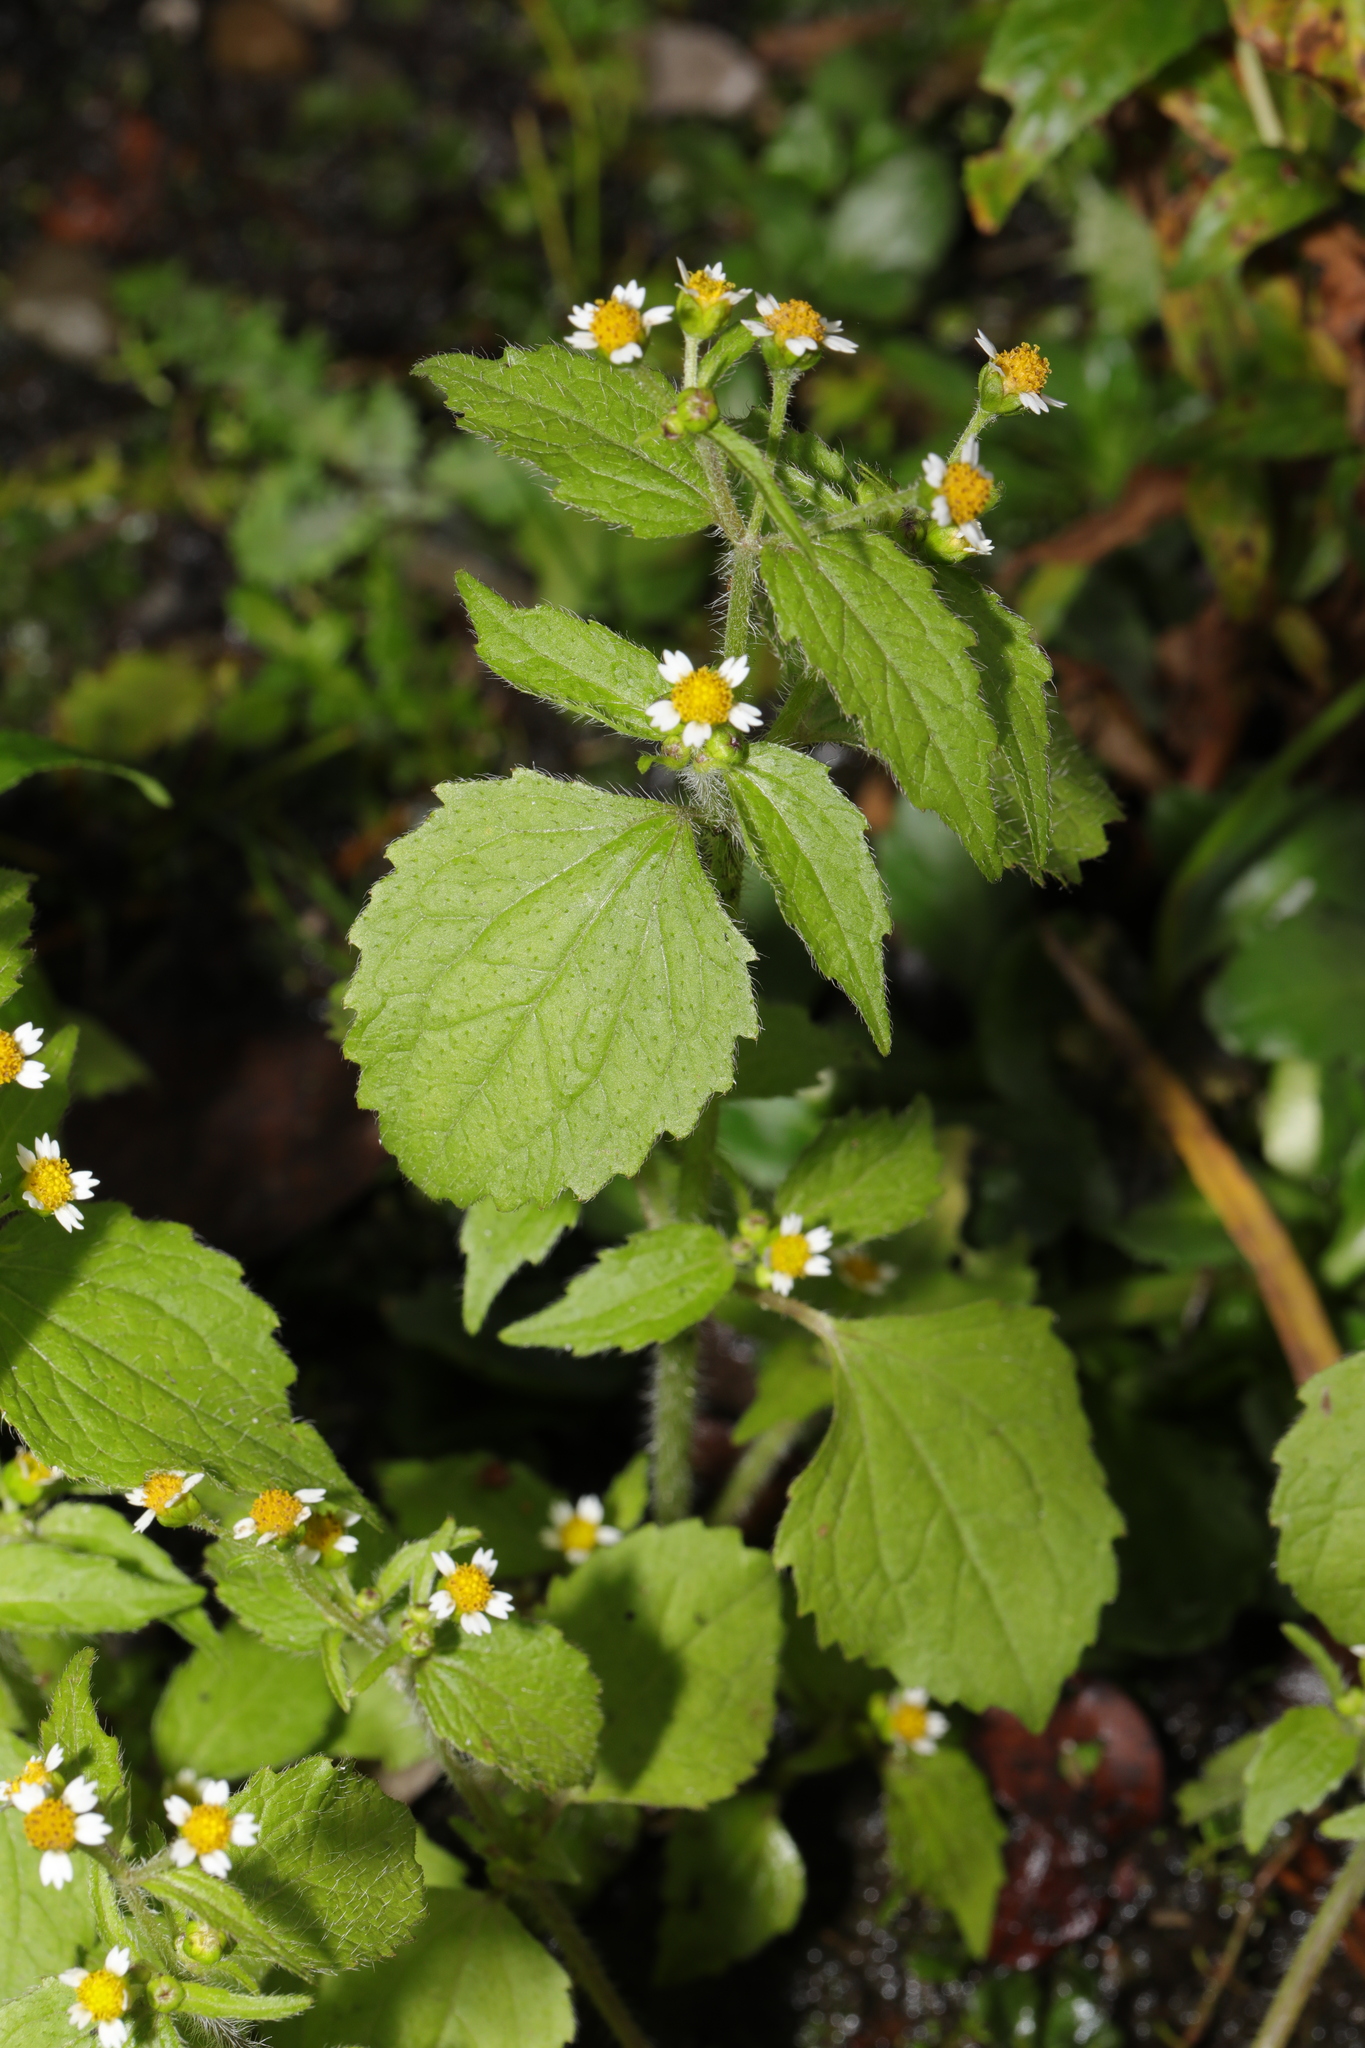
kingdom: Plantae
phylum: Tracheophyta
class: Magnoliopsida
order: Asterales
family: Asteraceae
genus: Galinsoga
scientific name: Galinsoga quadriradiata
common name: Shaggy soldier
